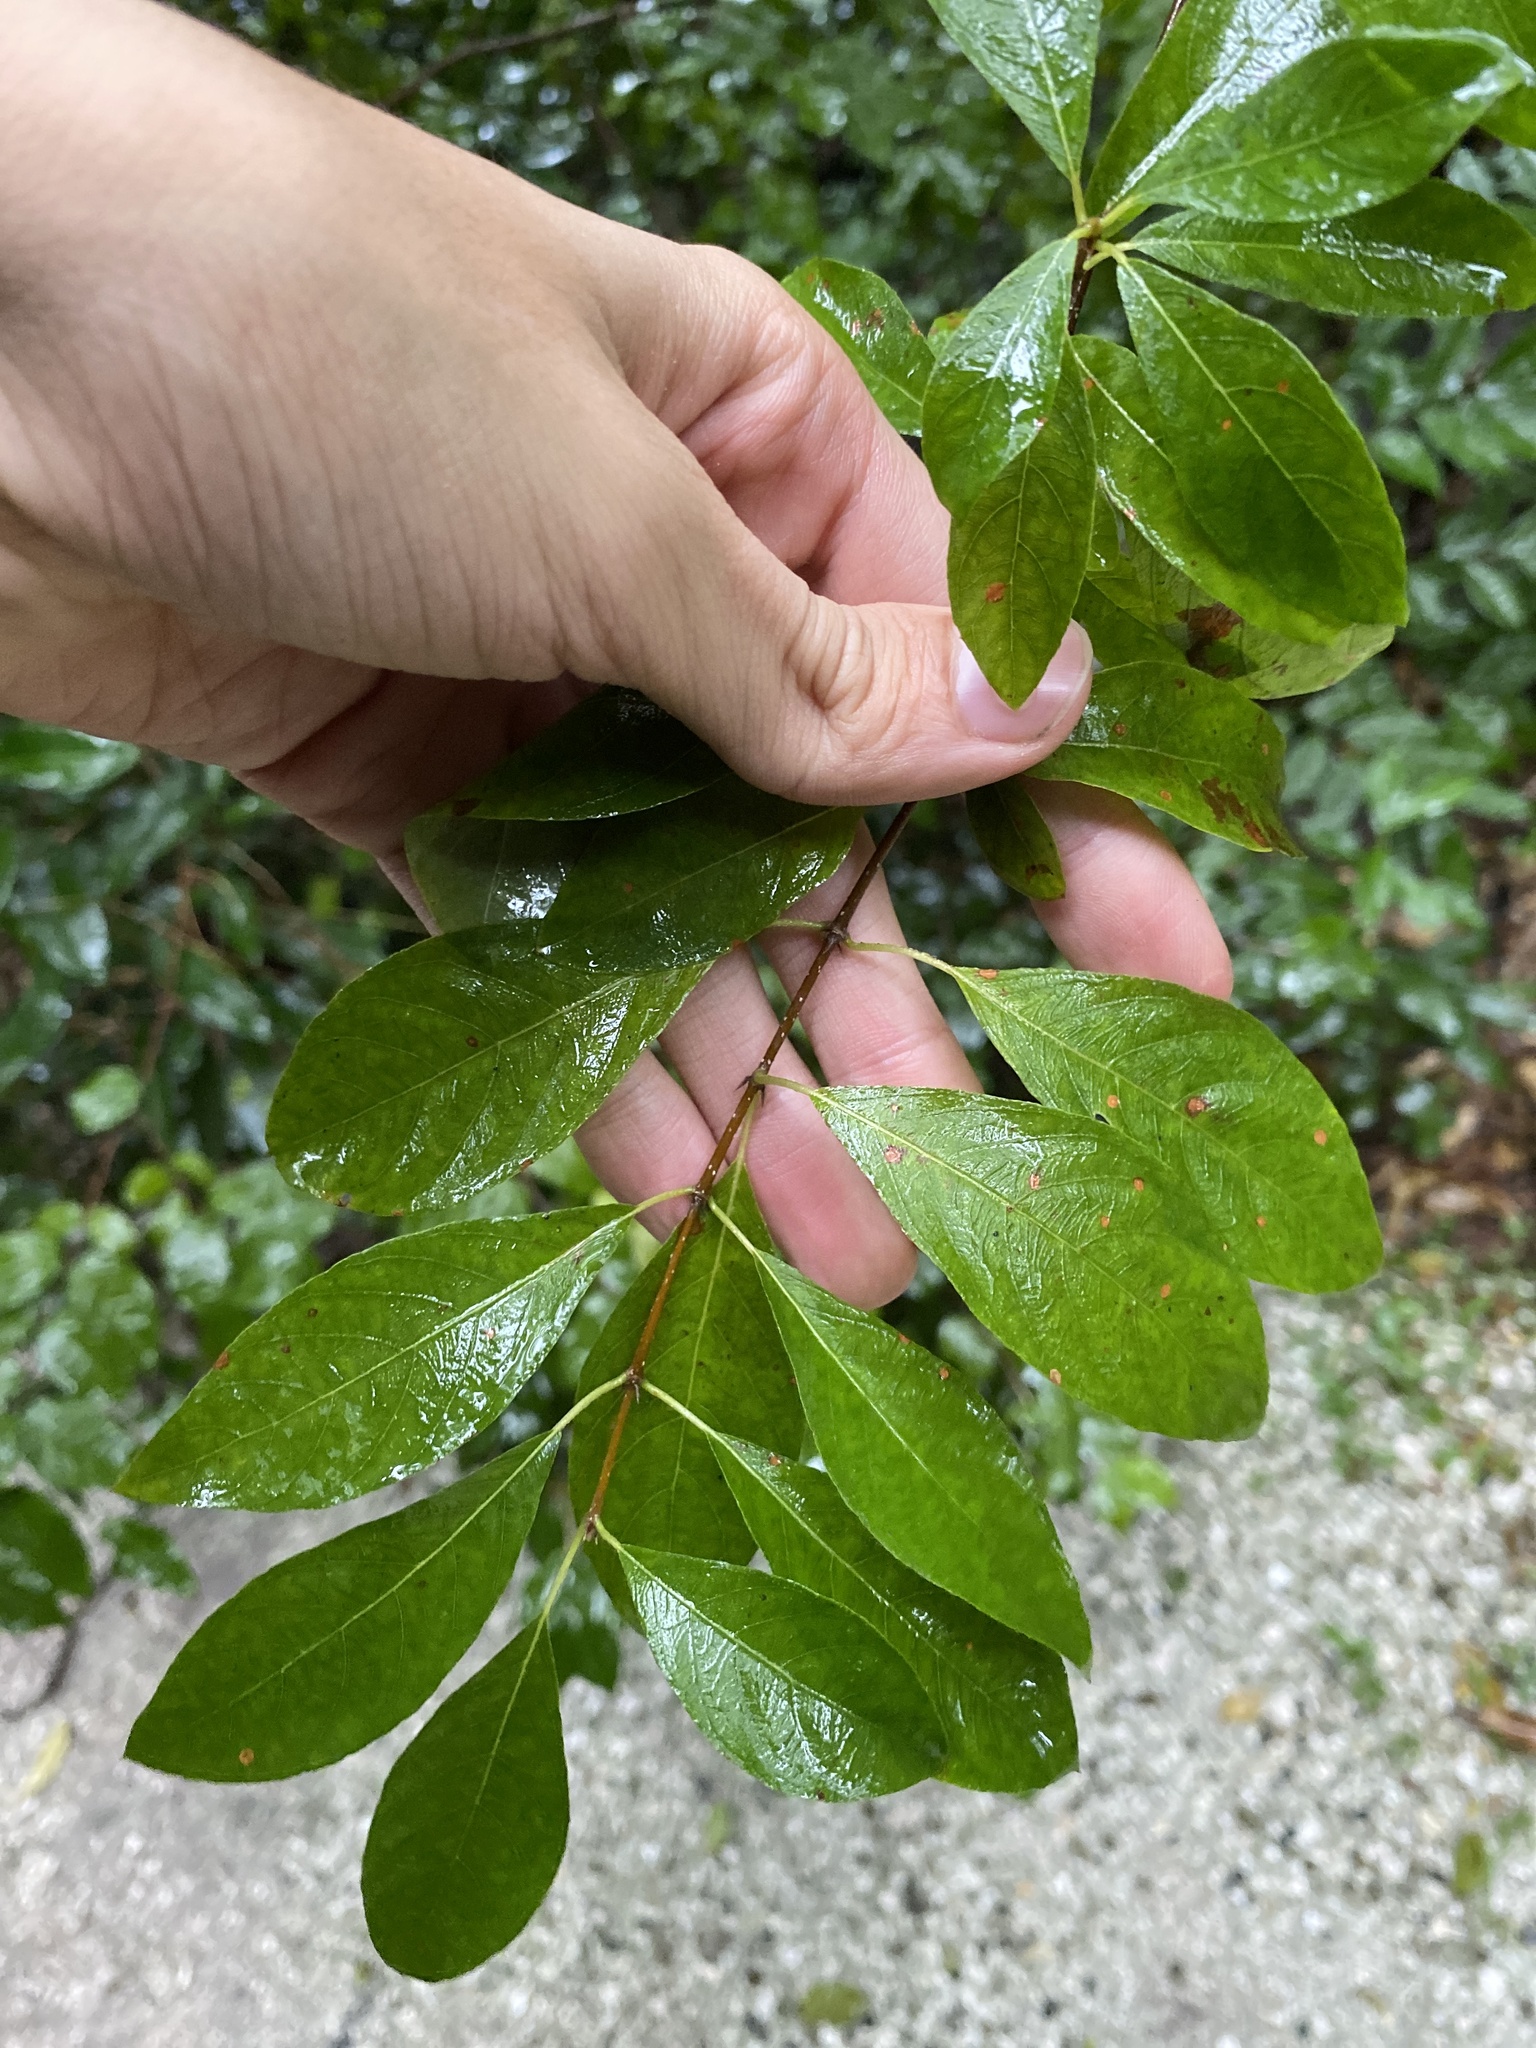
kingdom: Plantae
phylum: Tracheophyta
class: Magnoliopsida
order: Gentianales
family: Rubiaceae
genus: Guettarda
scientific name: Guettarda elliptica
